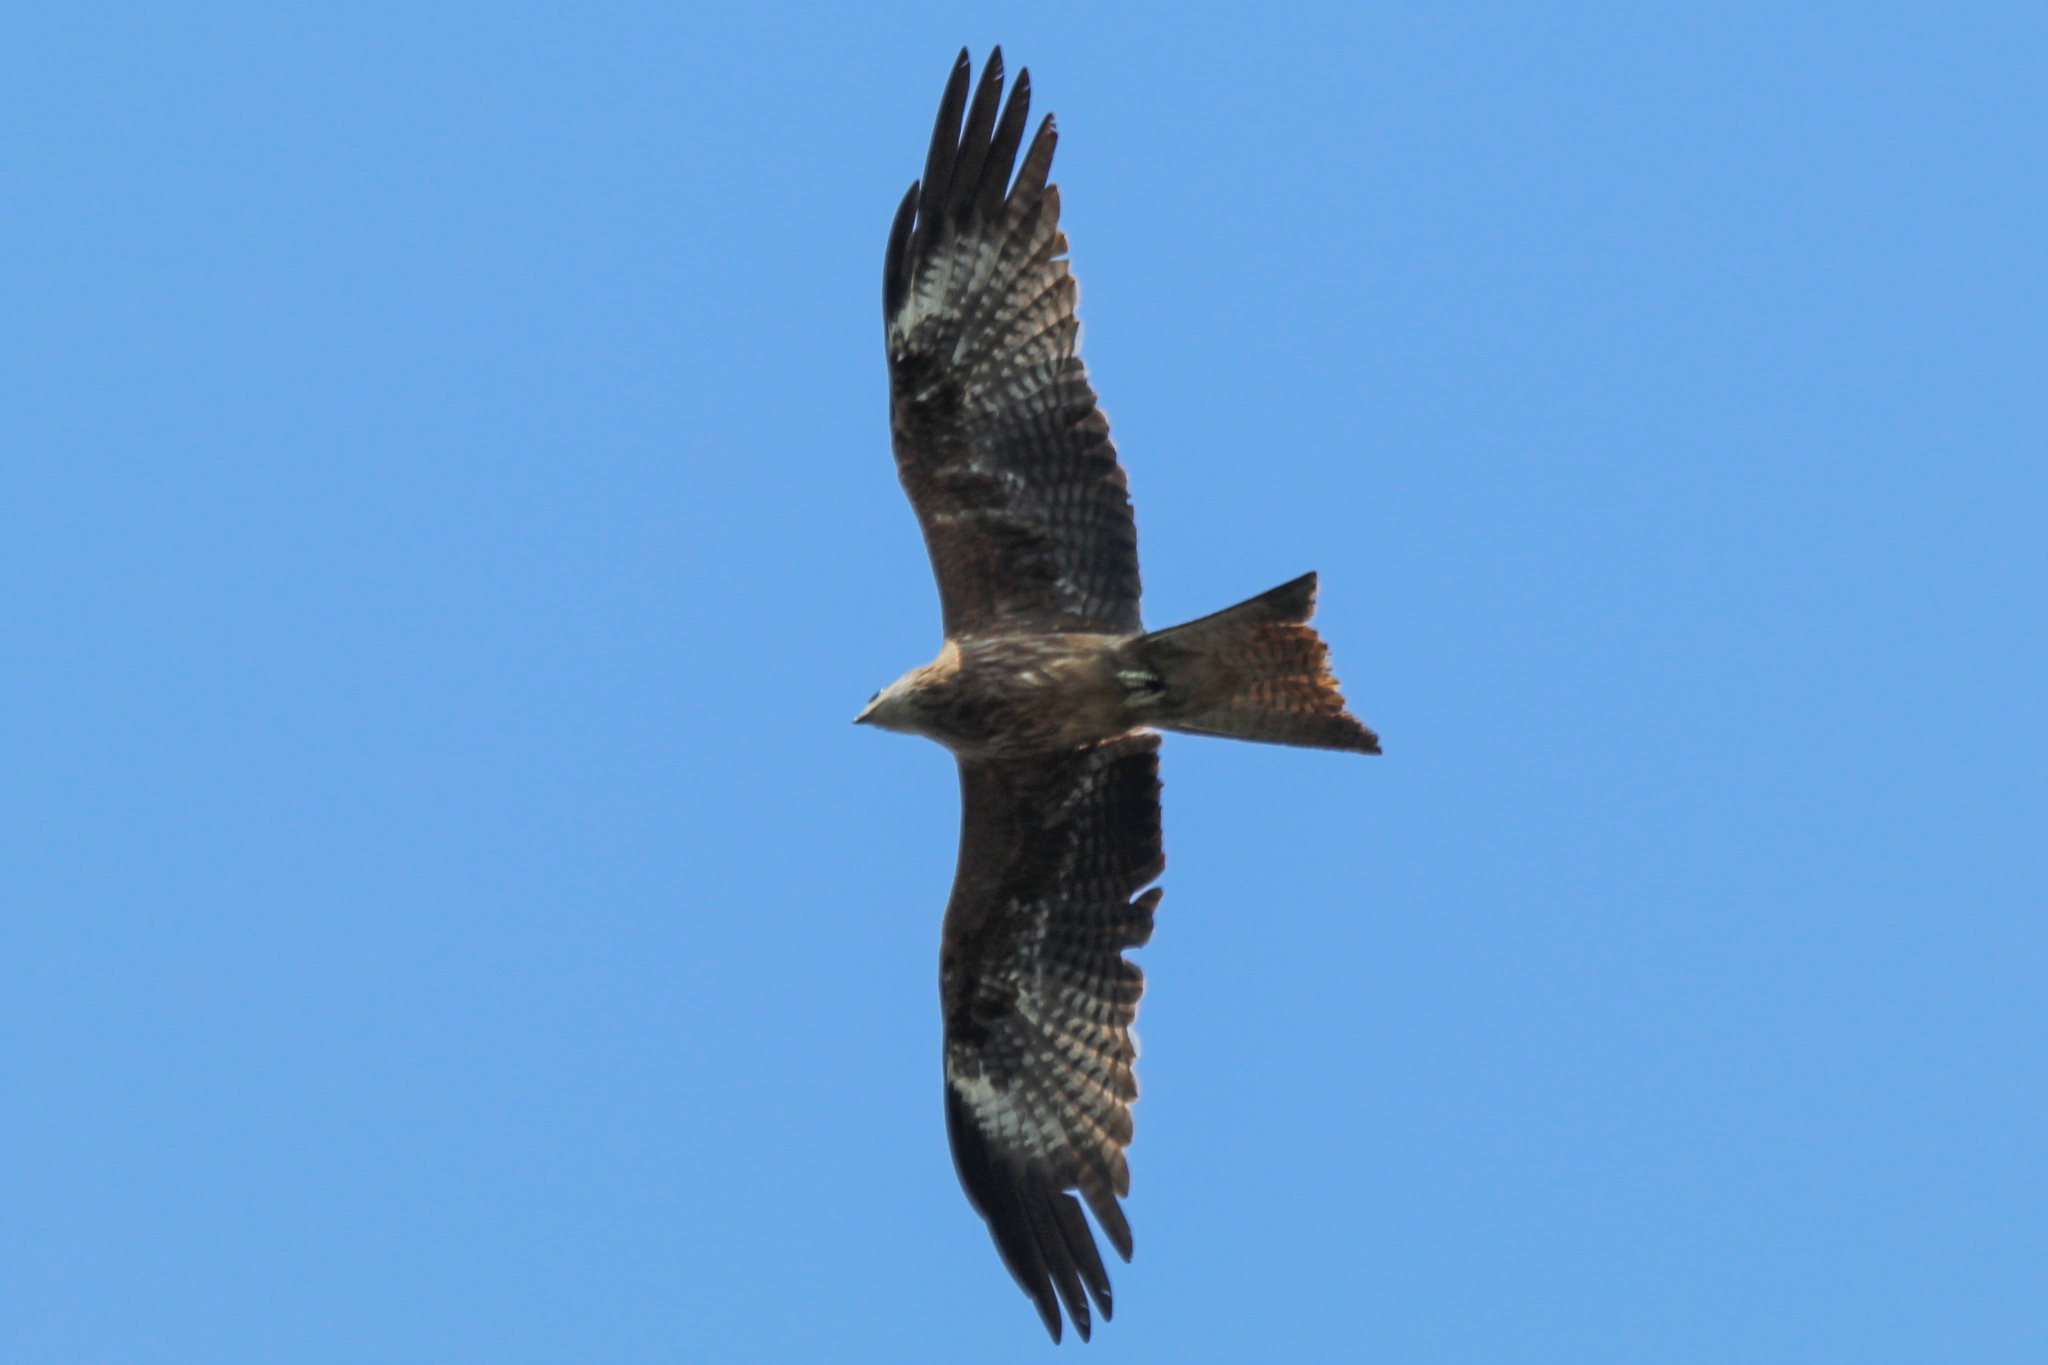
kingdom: Animalia
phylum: Chordata
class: Aves
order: Accipitriformes
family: Accipitridae
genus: Milvus
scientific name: Milvus migrans
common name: Black kite
